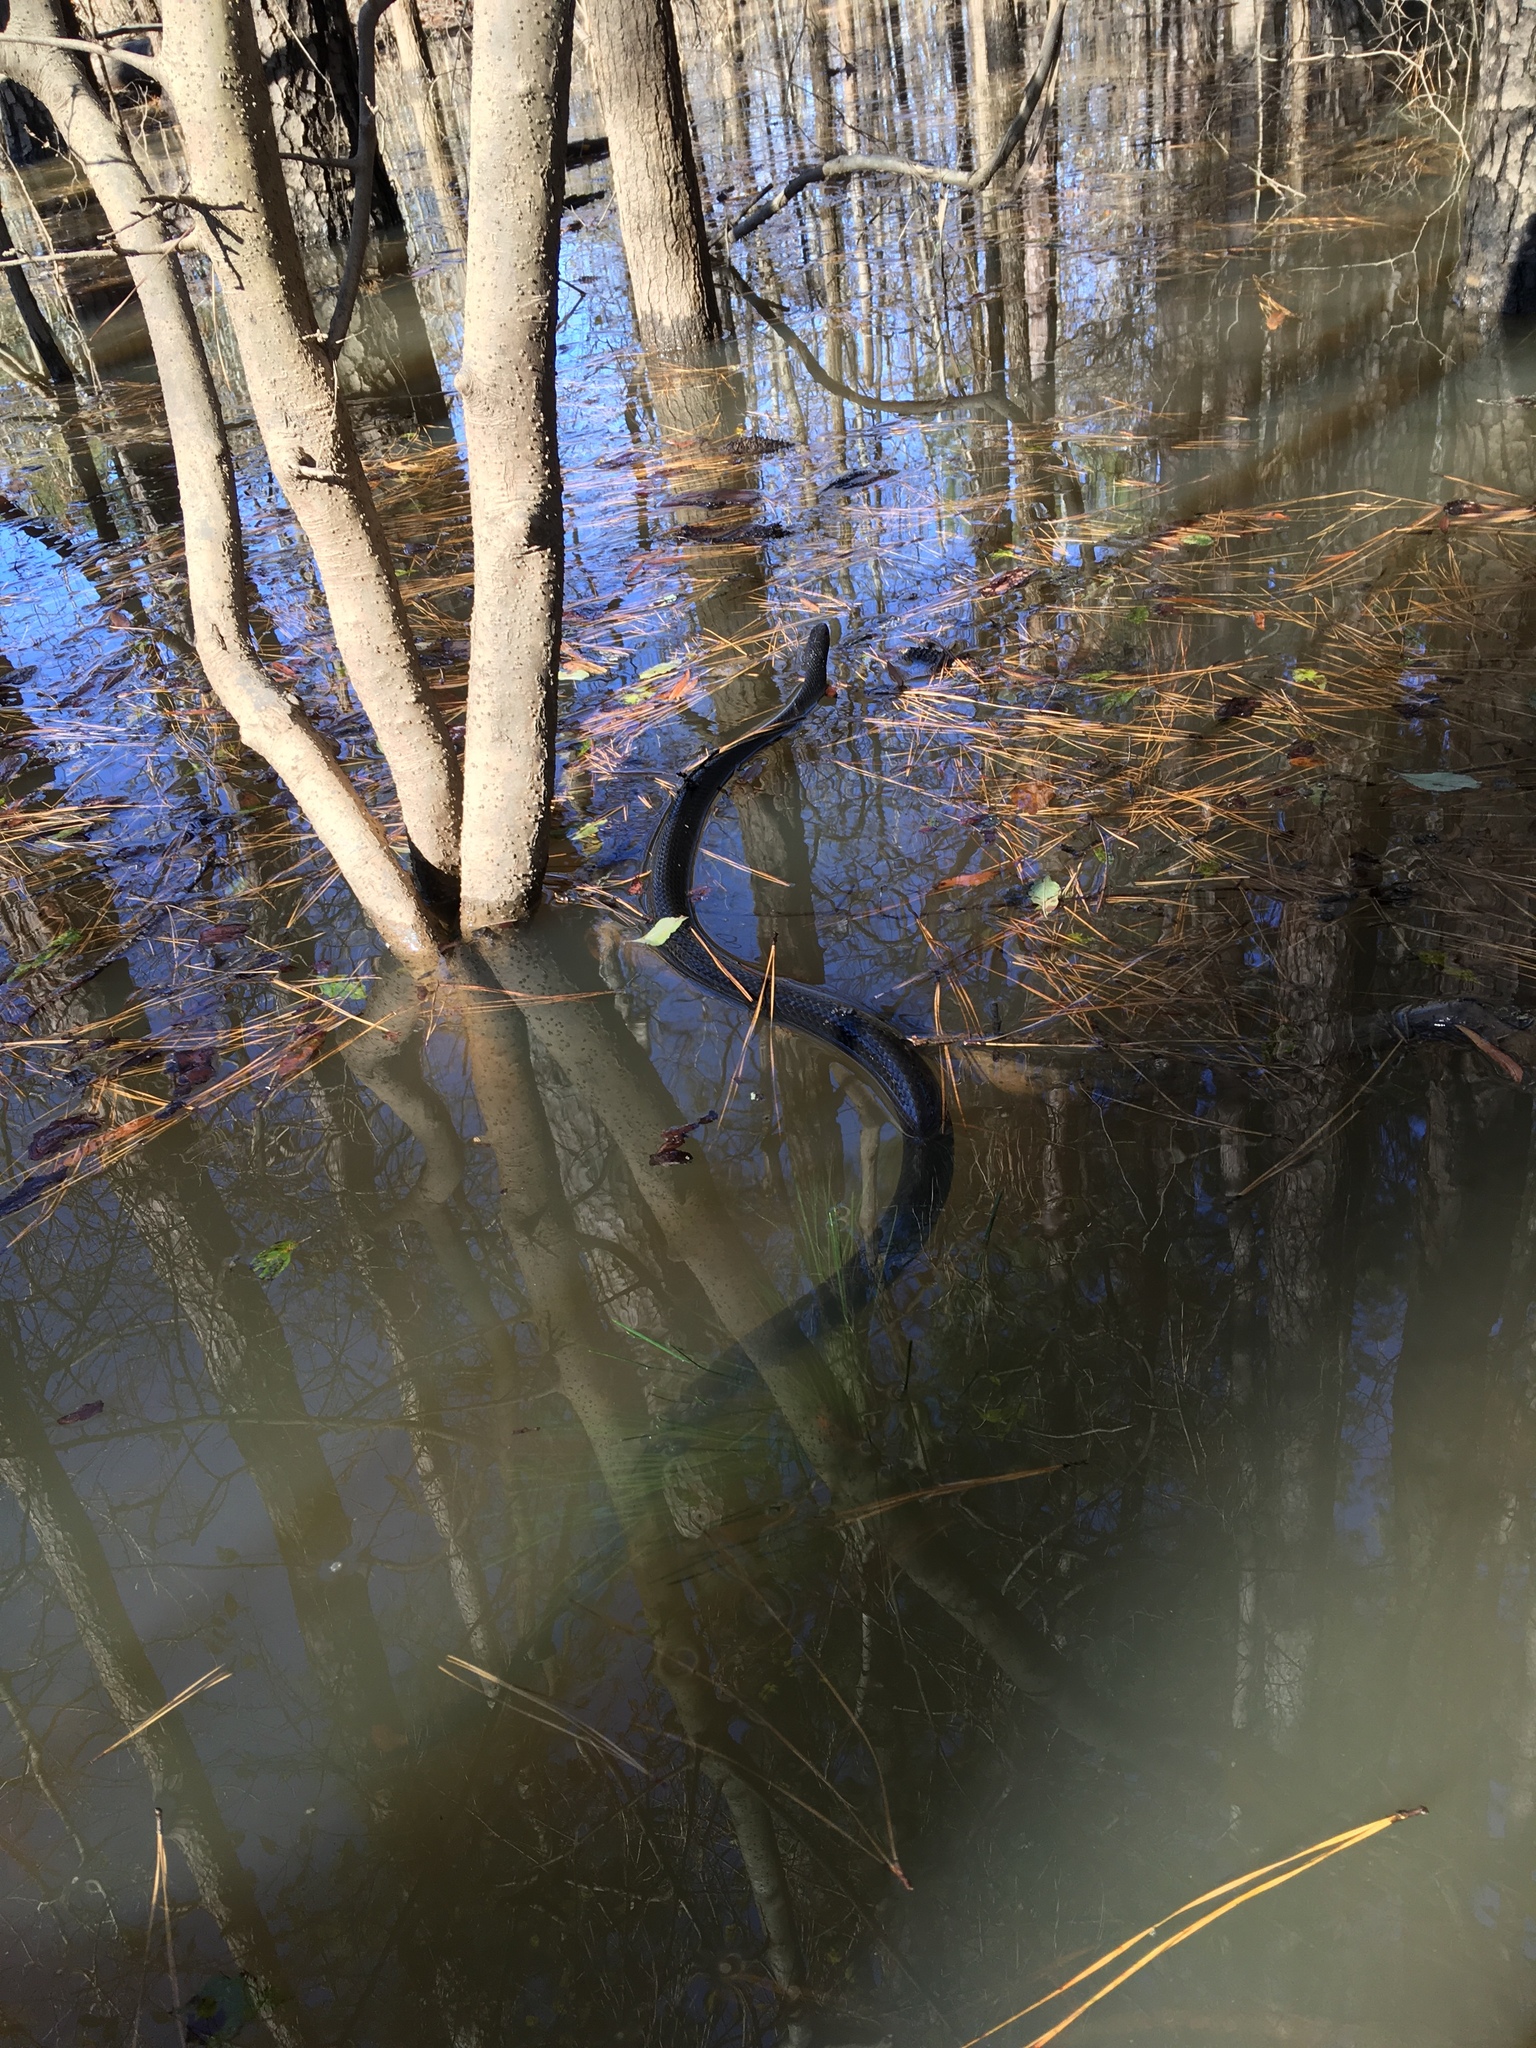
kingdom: Animalia
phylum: Chordata
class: Squamata
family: Colubridae
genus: Coluber
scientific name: Coluber constrictor
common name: Eastern racer
